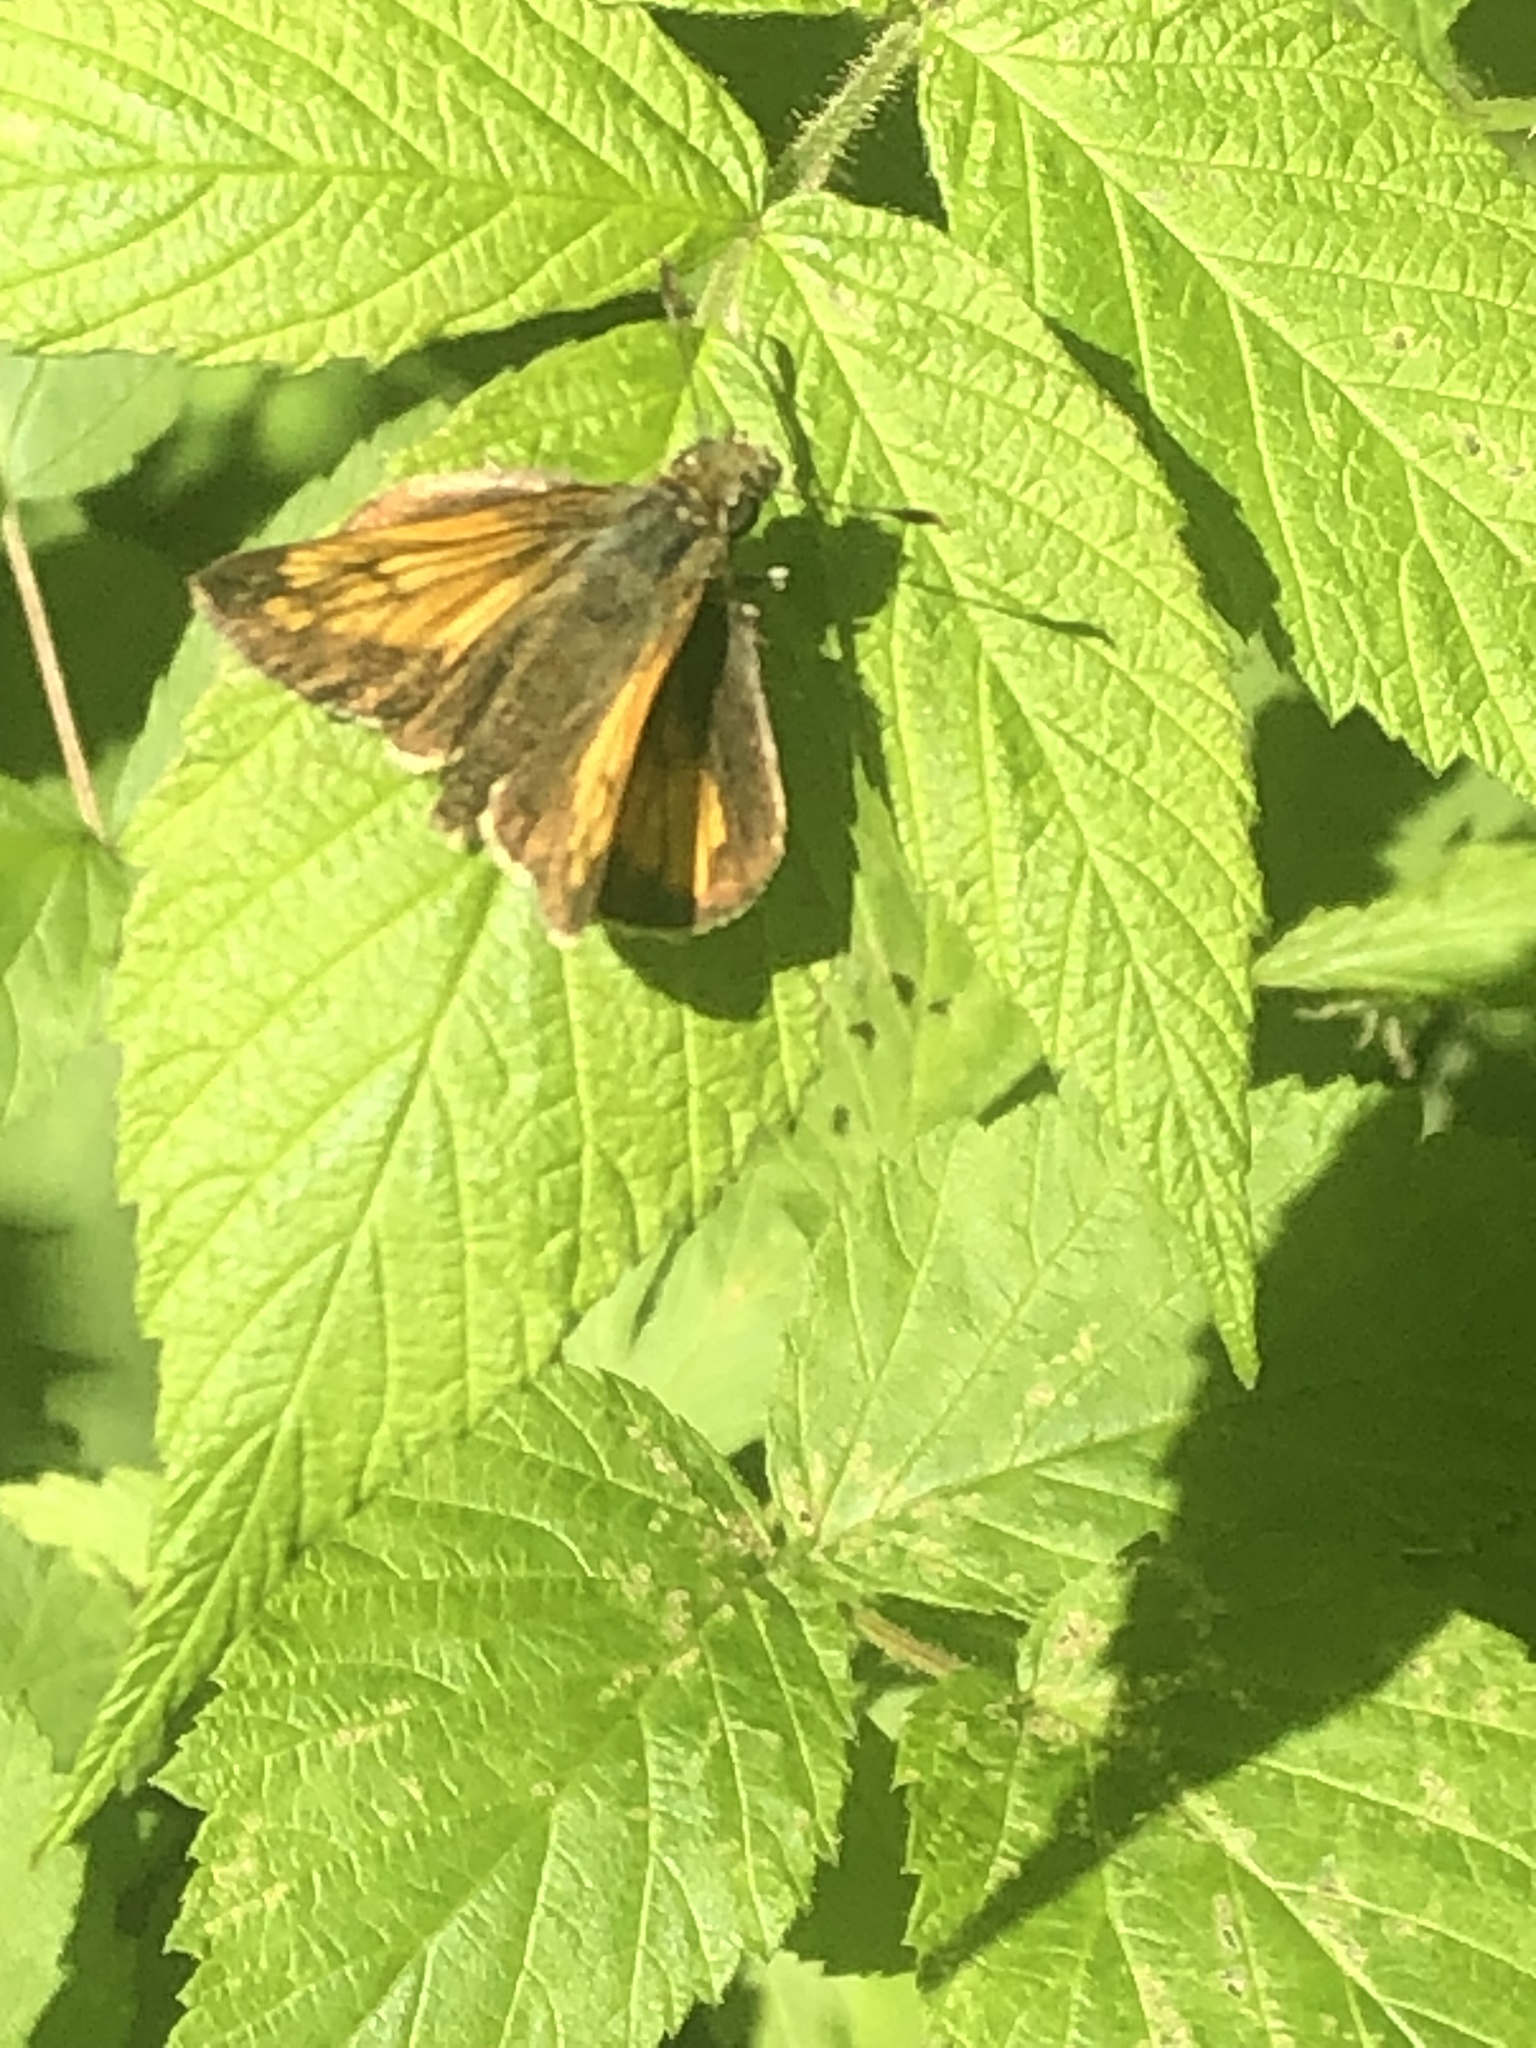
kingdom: Animalia
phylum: Arthropoda
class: Insecta
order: Lepidoptera
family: Hesperiidae
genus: Lon
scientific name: Lon hobomok
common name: Hobomok skipper
